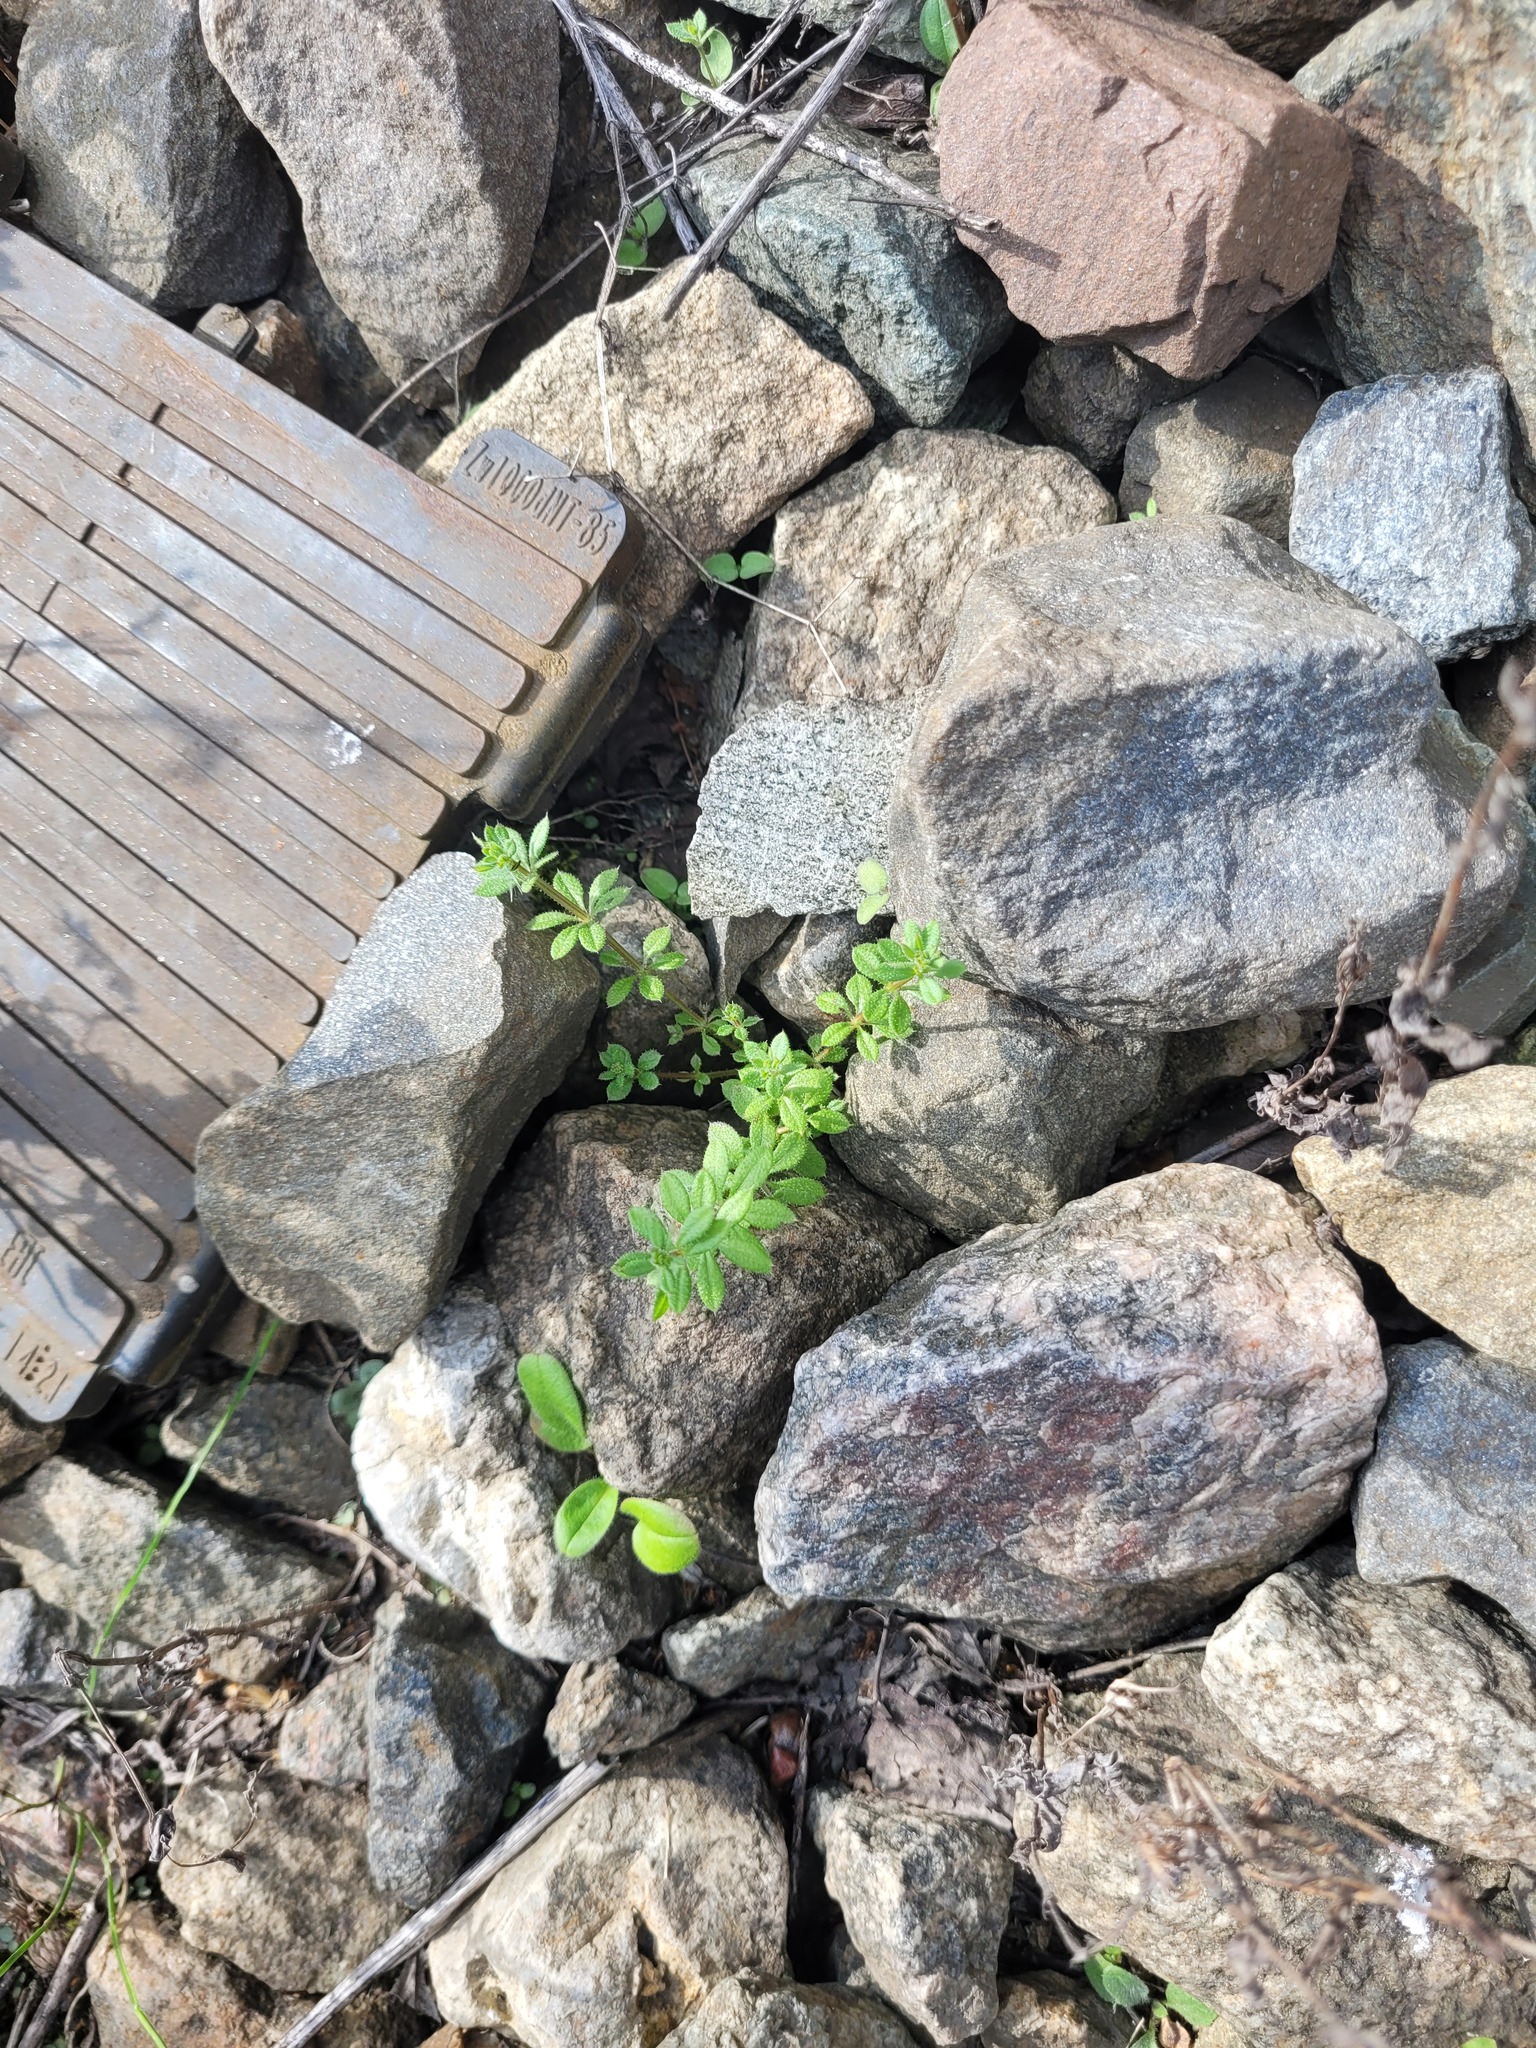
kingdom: Plantae
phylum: Tracheophyta
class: Magnoliopsida
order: Gentianales
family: Rubiaceae
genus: Galium
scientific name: Galium aparine
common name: Cleavers
